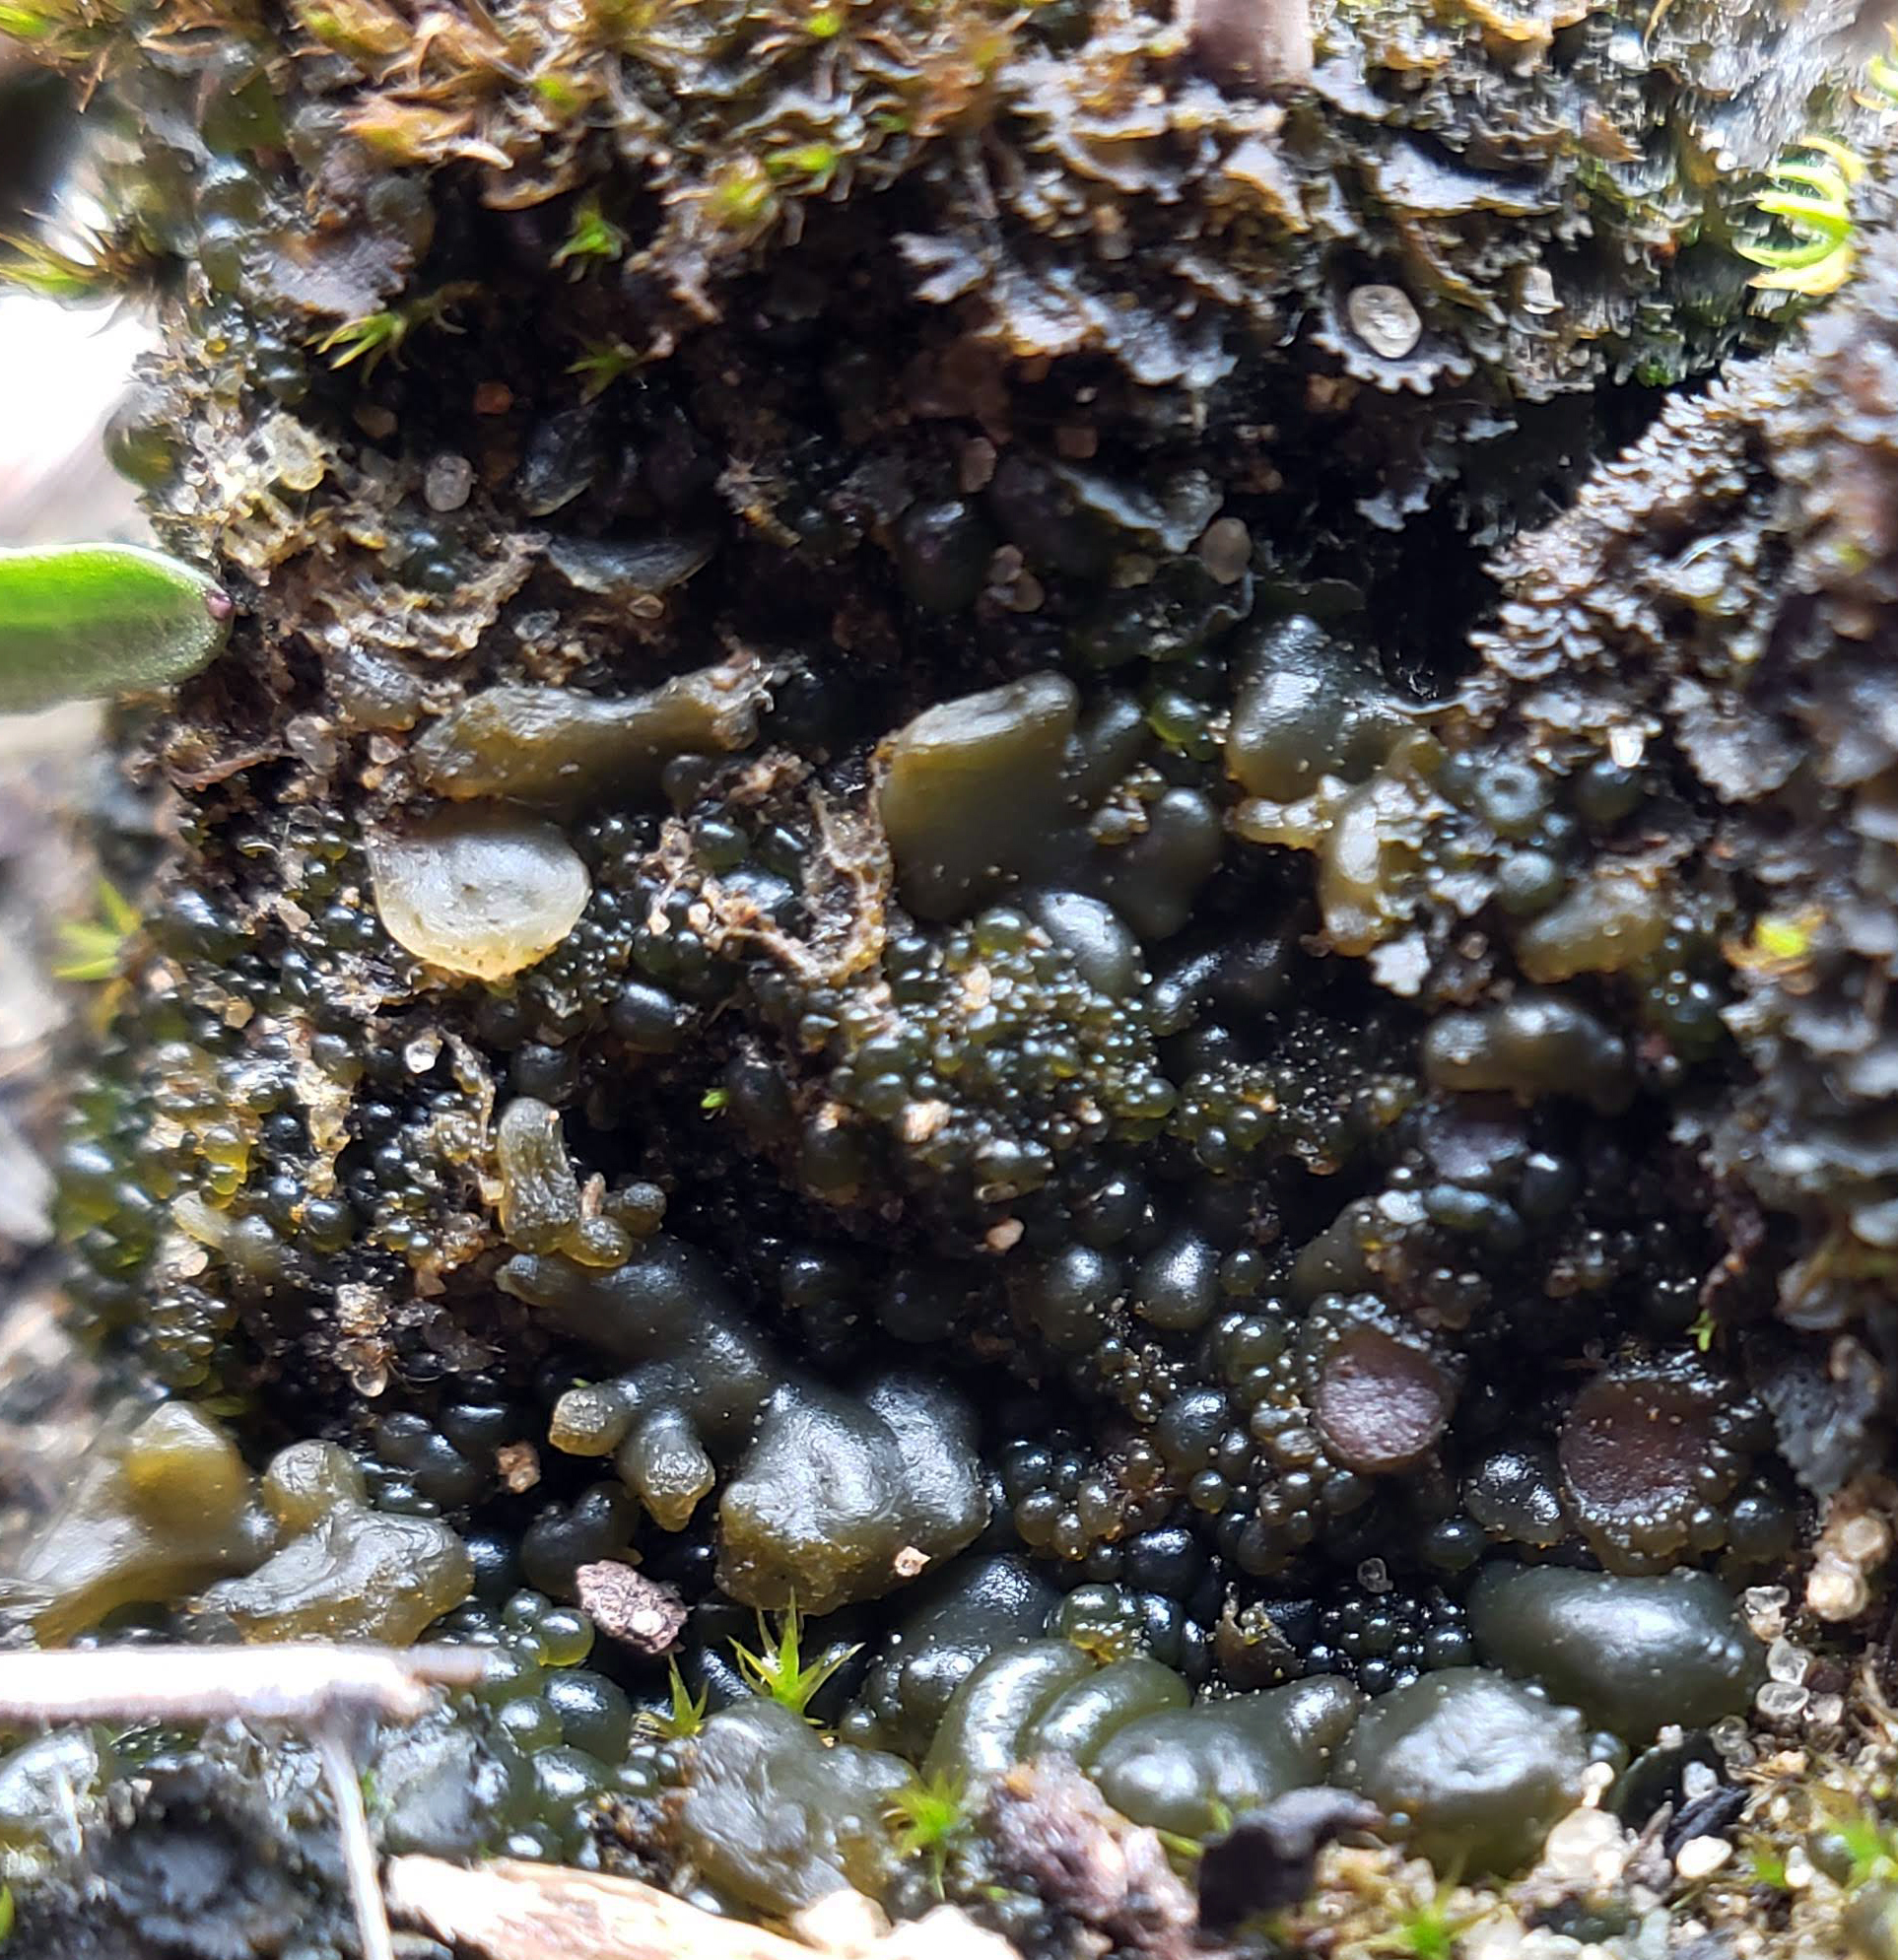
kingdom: Fungi
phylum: Ascomycota
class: Lecanoromycetes
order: Peltigerales
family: Collemataceae
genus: Enchylium
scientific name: Enchylium bachmanianum
